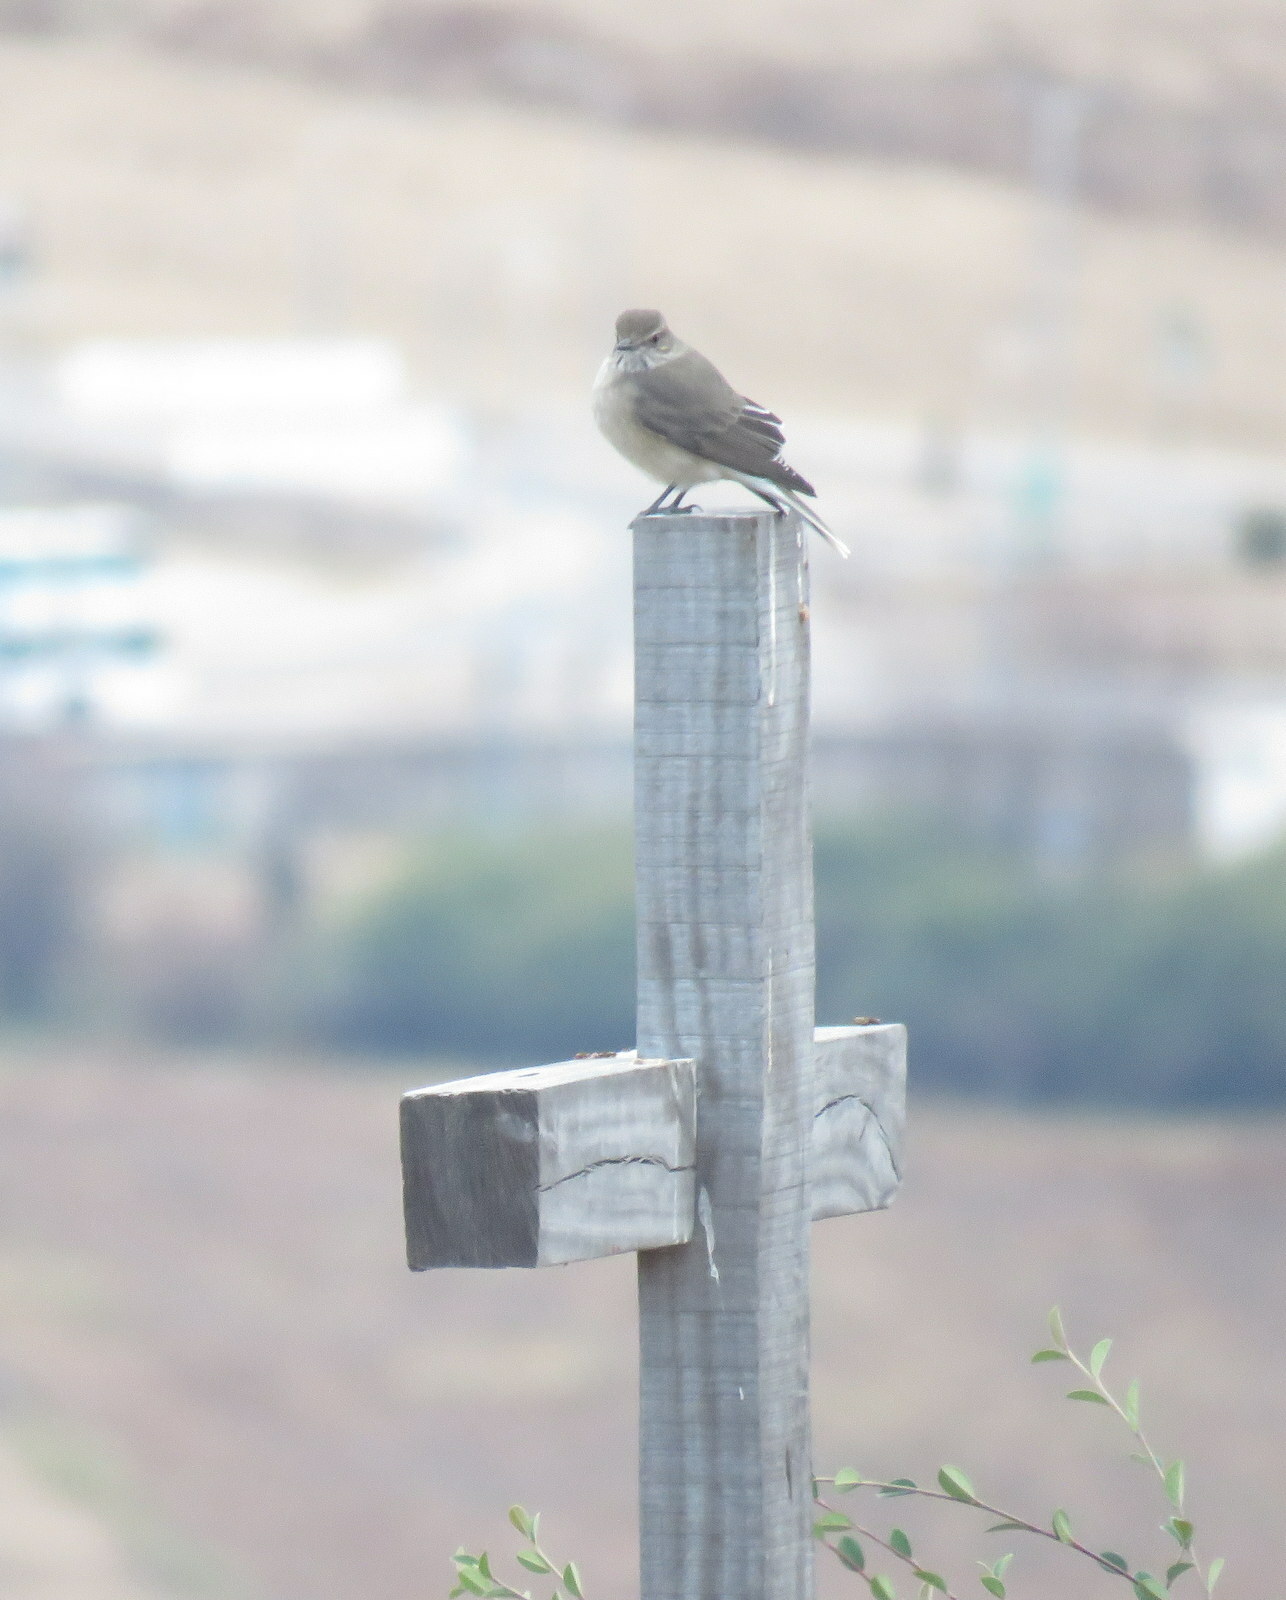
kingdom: Animalia
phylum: Chordata
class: Aves
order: Passeriformes
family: Tyrannidae
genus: Agriornis
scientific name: Agriornis montanus
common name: Black-billed shrike-tyrant
